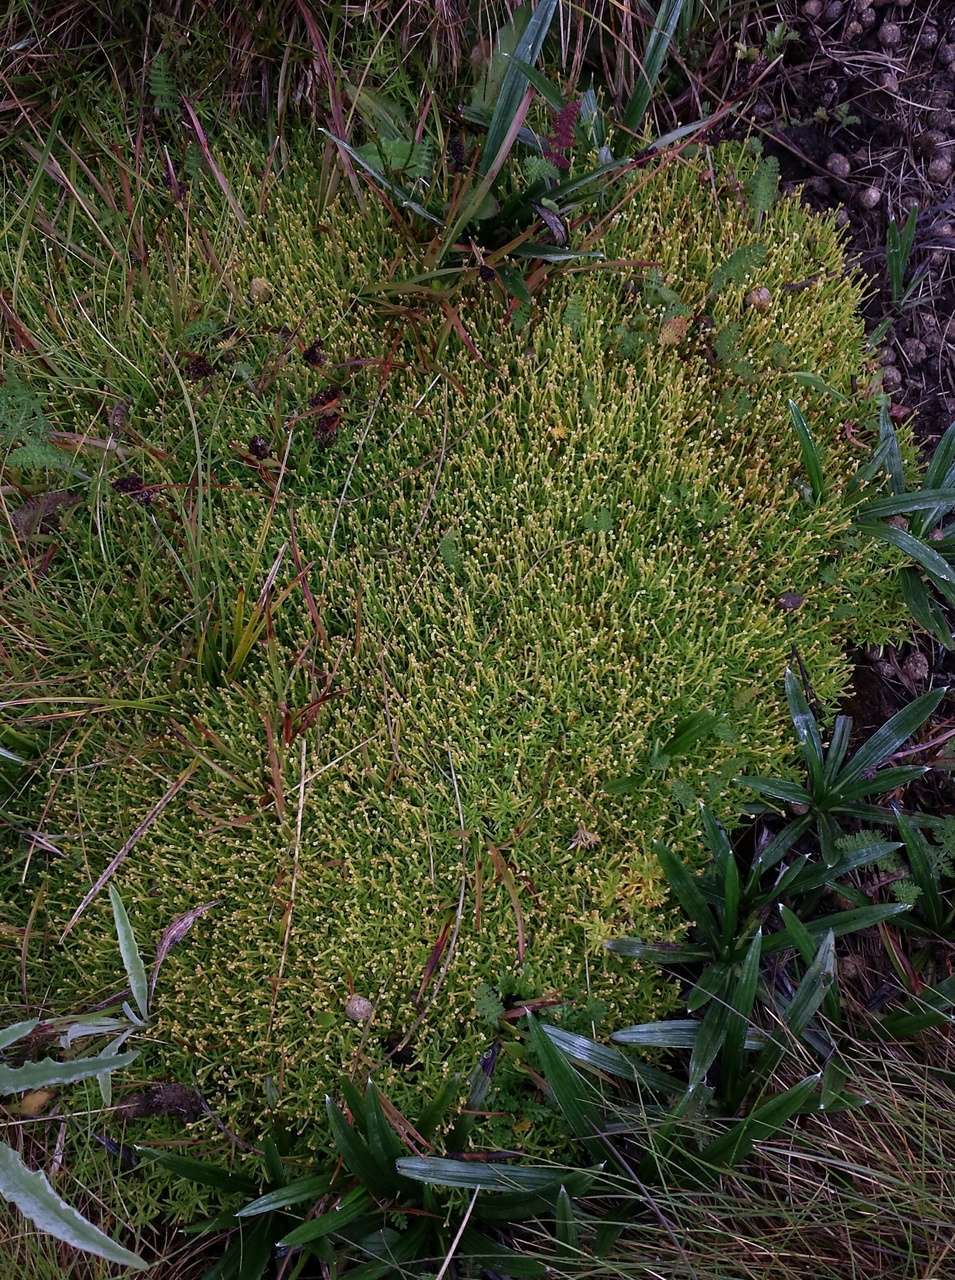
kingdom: Plantae
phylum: Tracheophyta
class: Magnoliopsida
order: Caryophyllales
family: Caryophyllaceae
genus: Scleranthus
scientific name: Scleranthus biflorus
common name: Two-flower knawel
